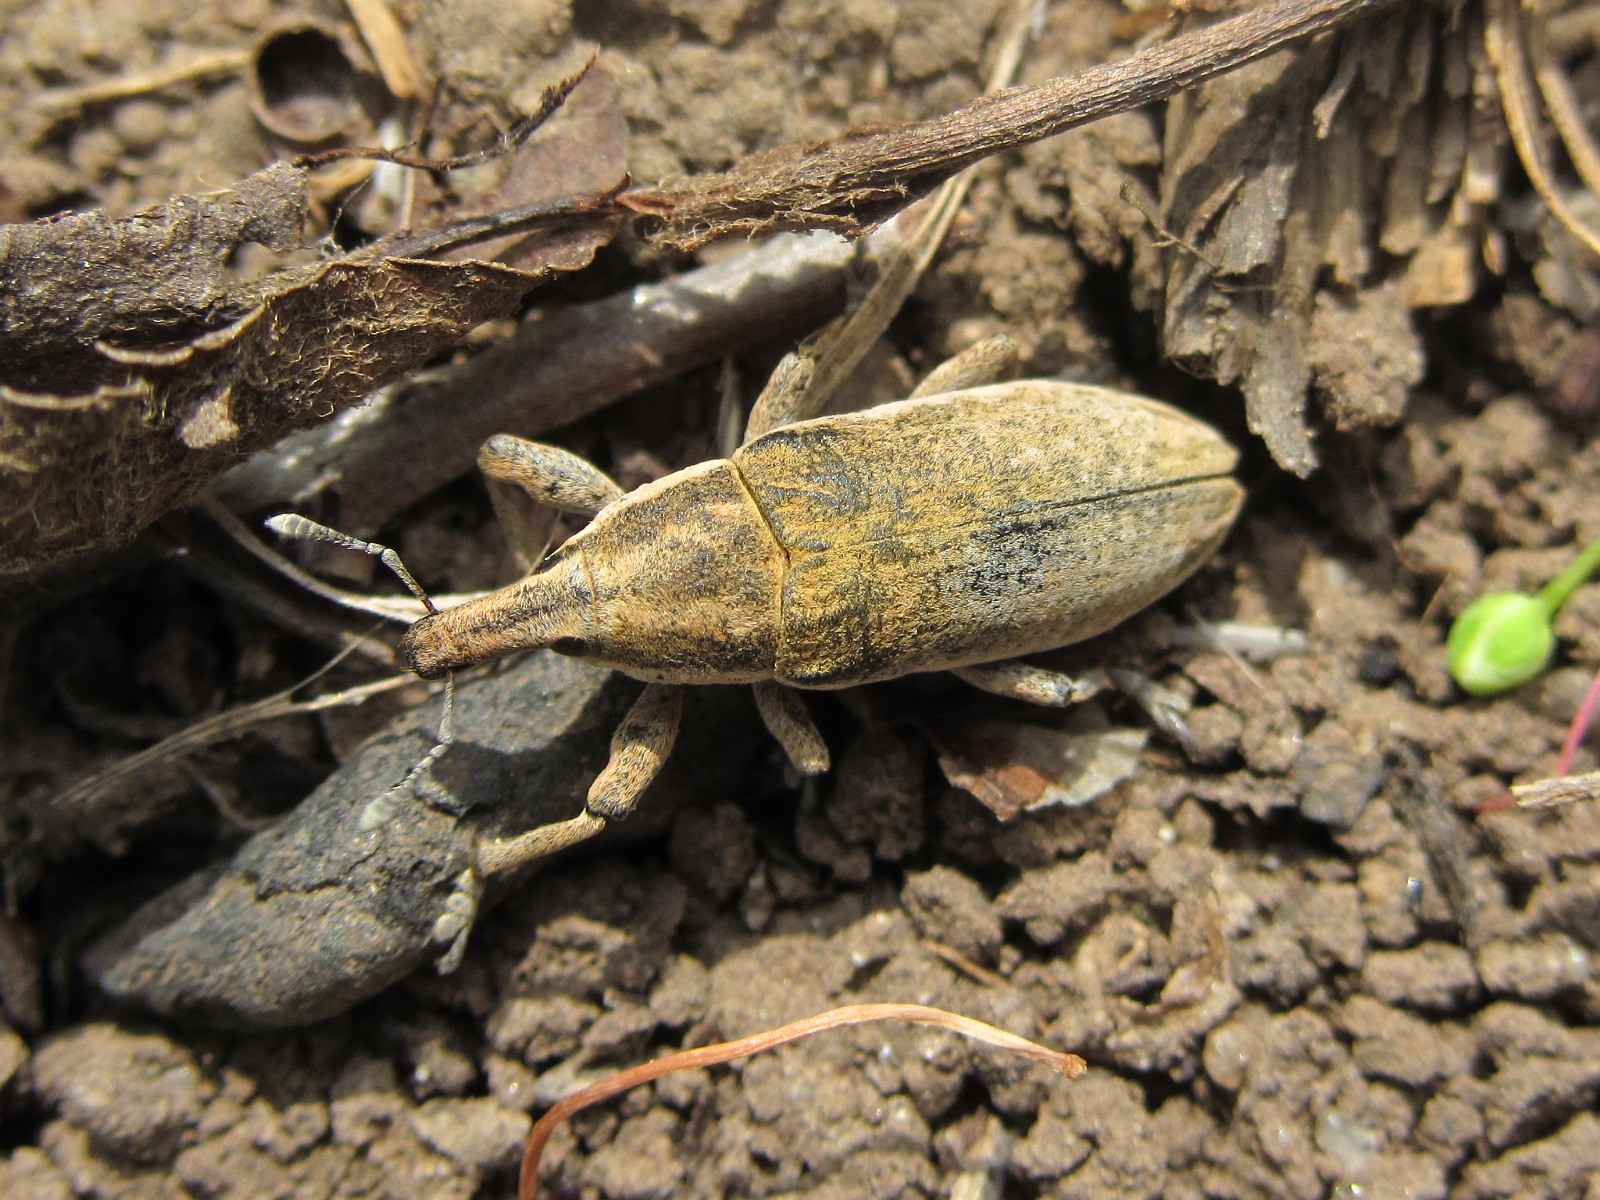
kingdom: Animalia
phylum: Arthropoda
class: Insecta
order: Coleoptera
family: Curculionidae
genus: Lixus
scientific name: Lixus myagri
